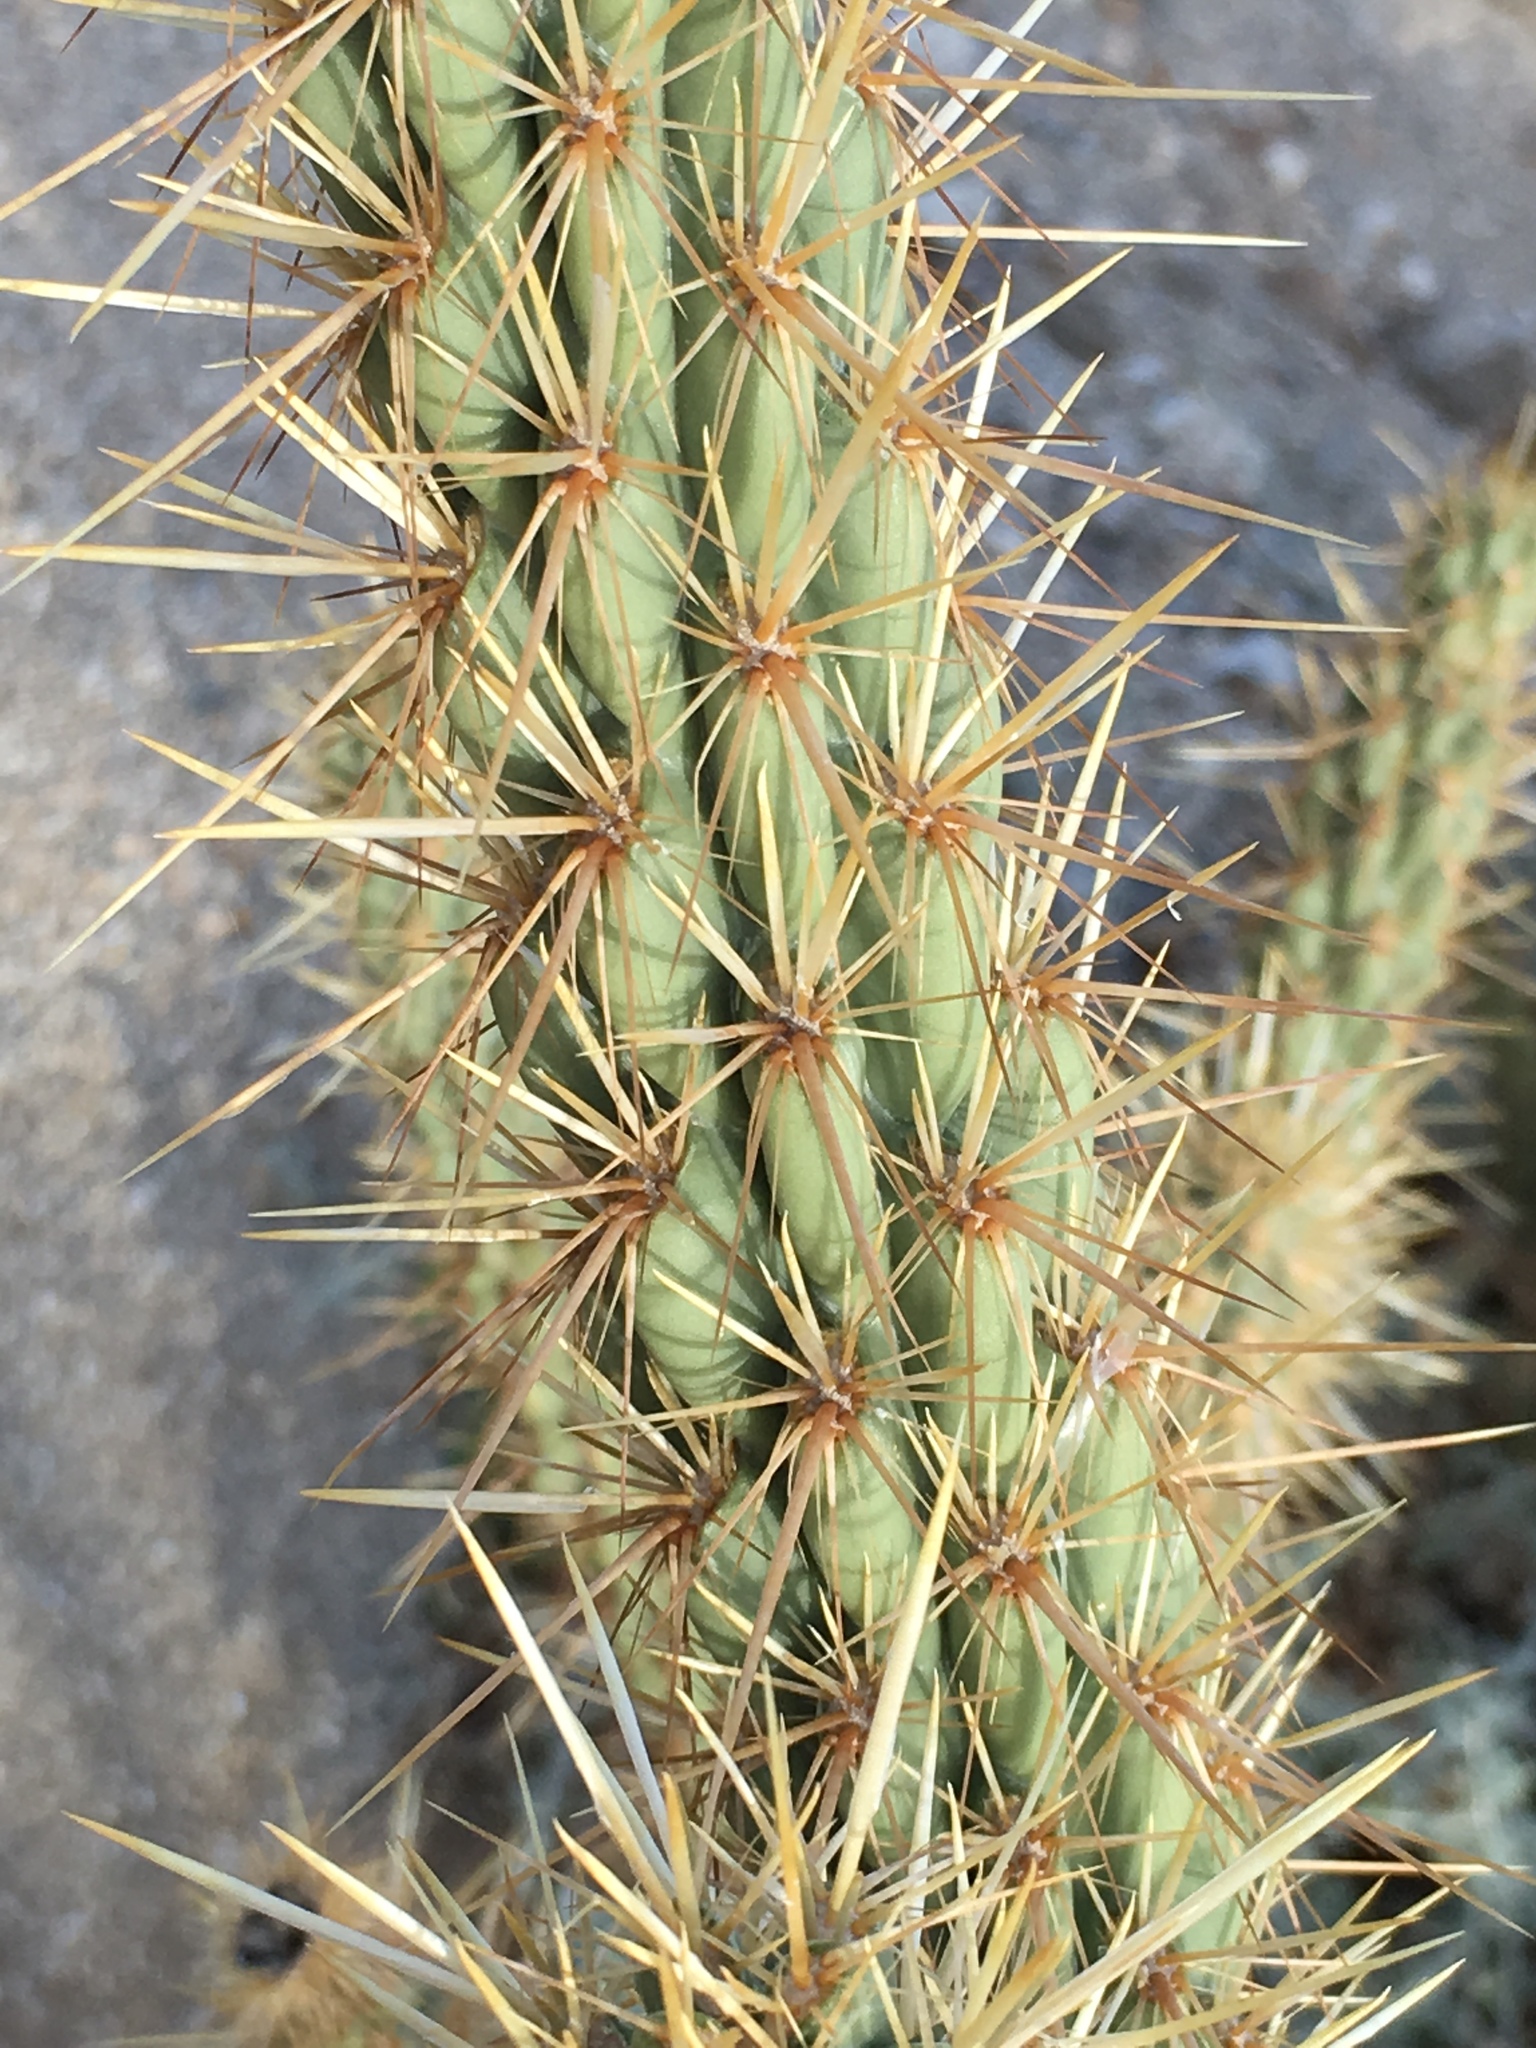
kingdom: Plantae
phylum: Tracheophyta
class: Magnoliopsida
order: Caryophyllales
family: Cactaceae
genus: Cylindropuntia
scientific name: Cylindropuntia ganderi
